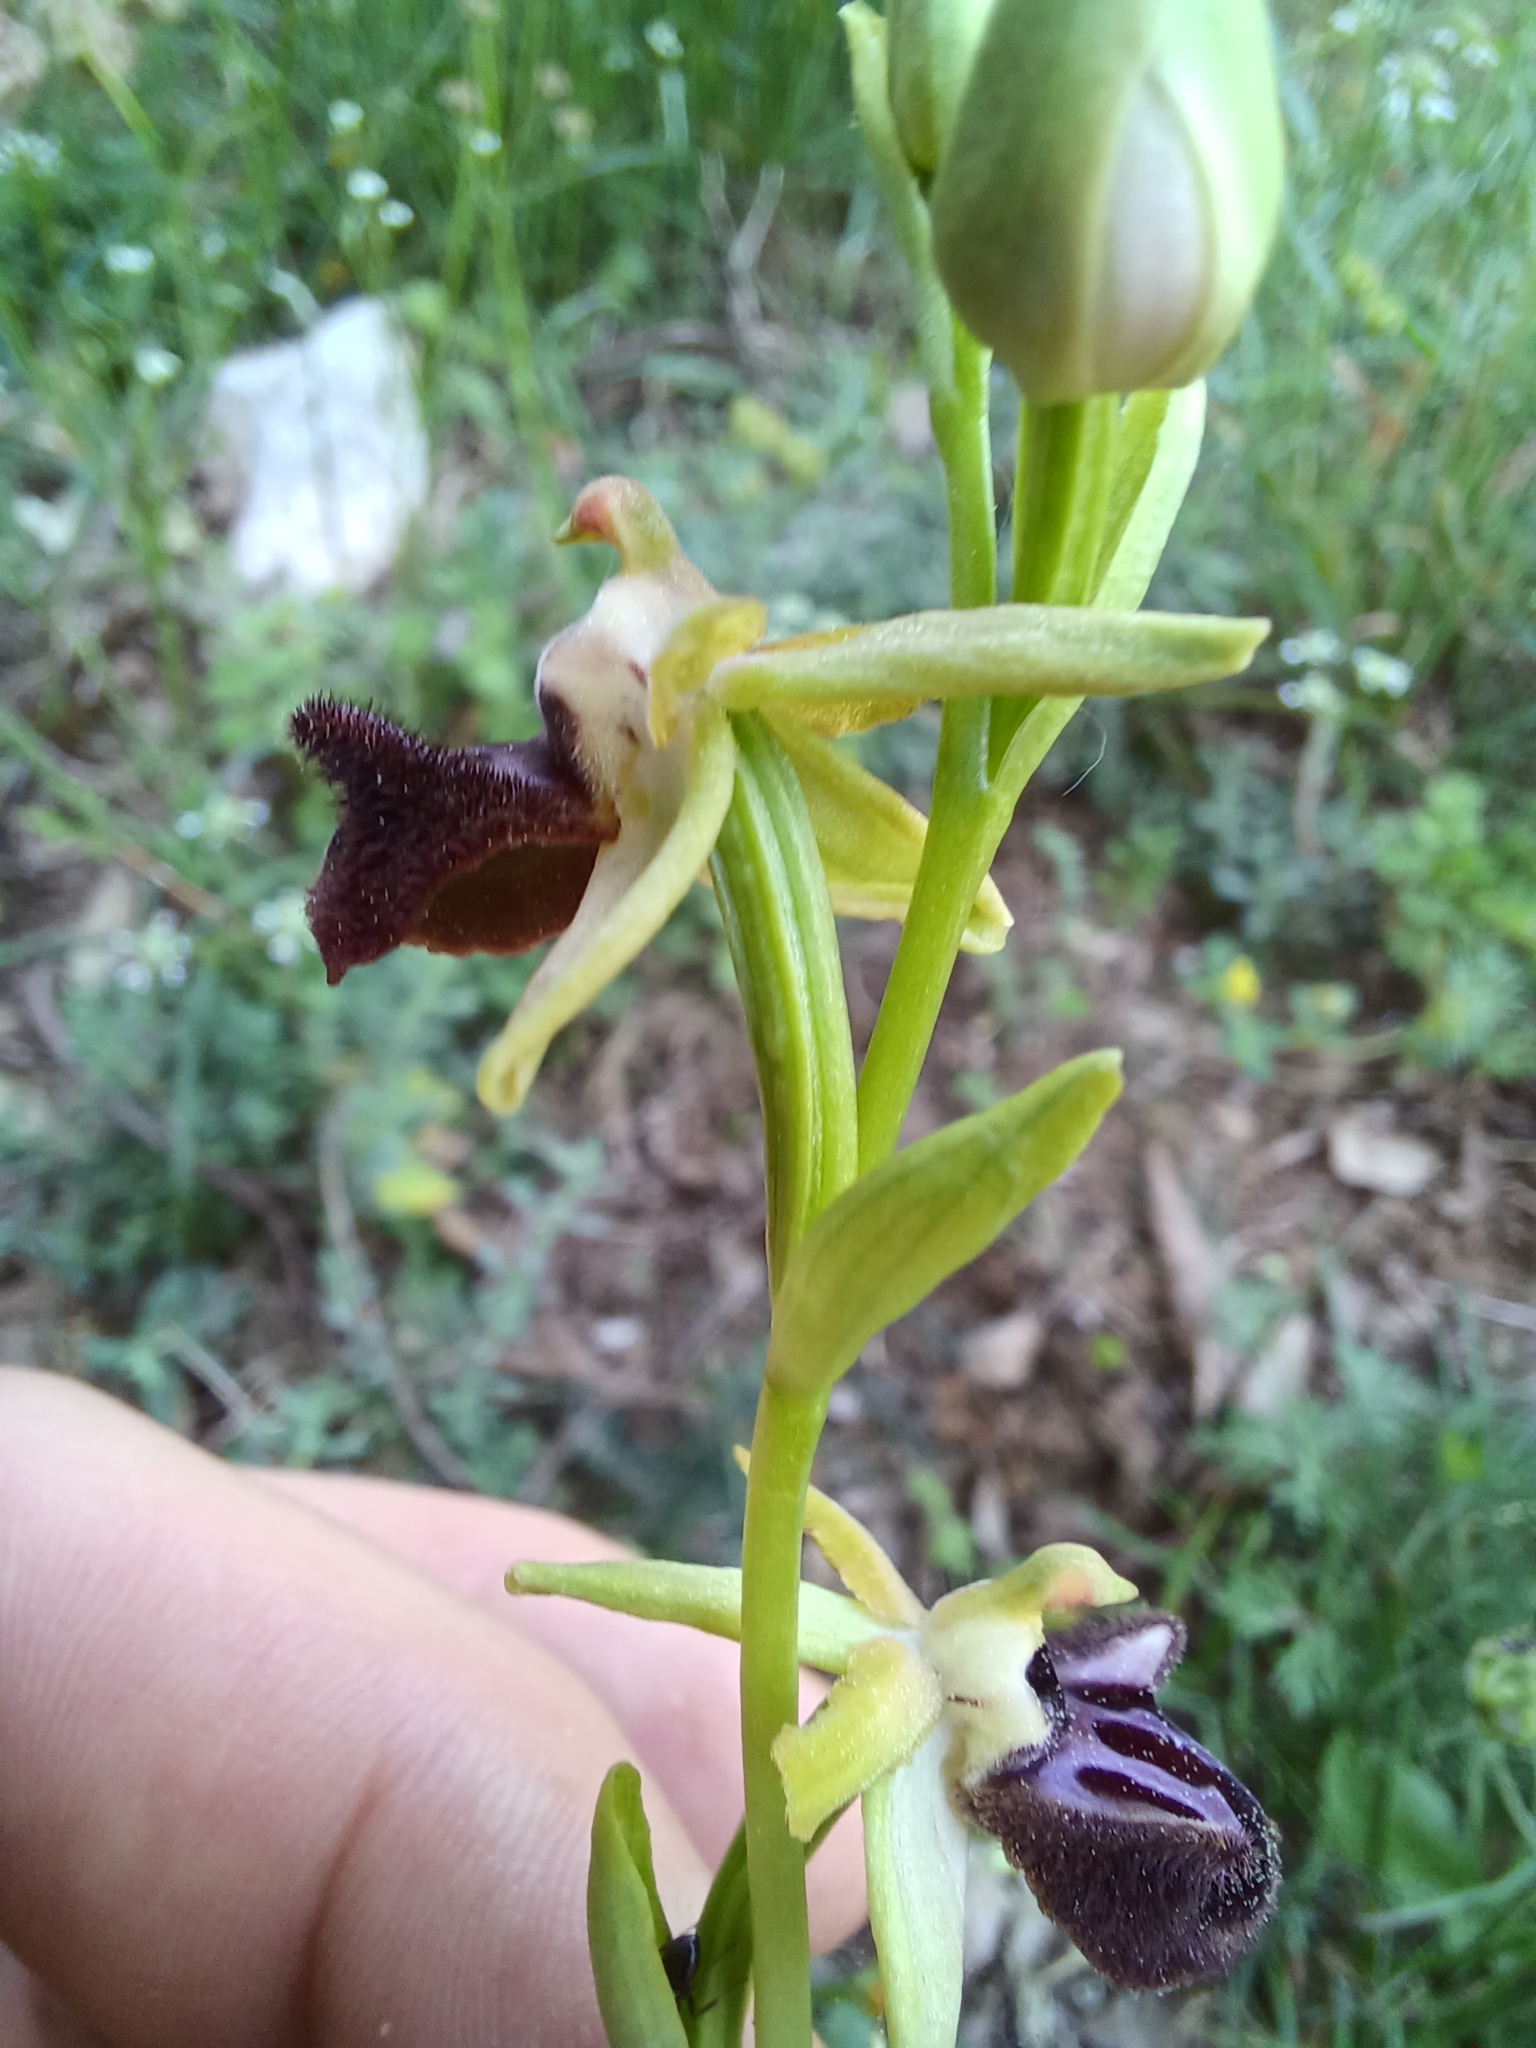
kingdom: Plantae
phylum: Tracheophyta
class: Liliopsida
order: Asparagales
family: Orchidaceae
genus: Ophrys
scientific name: Ophrys sphegodes
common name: Early spider-orchid
